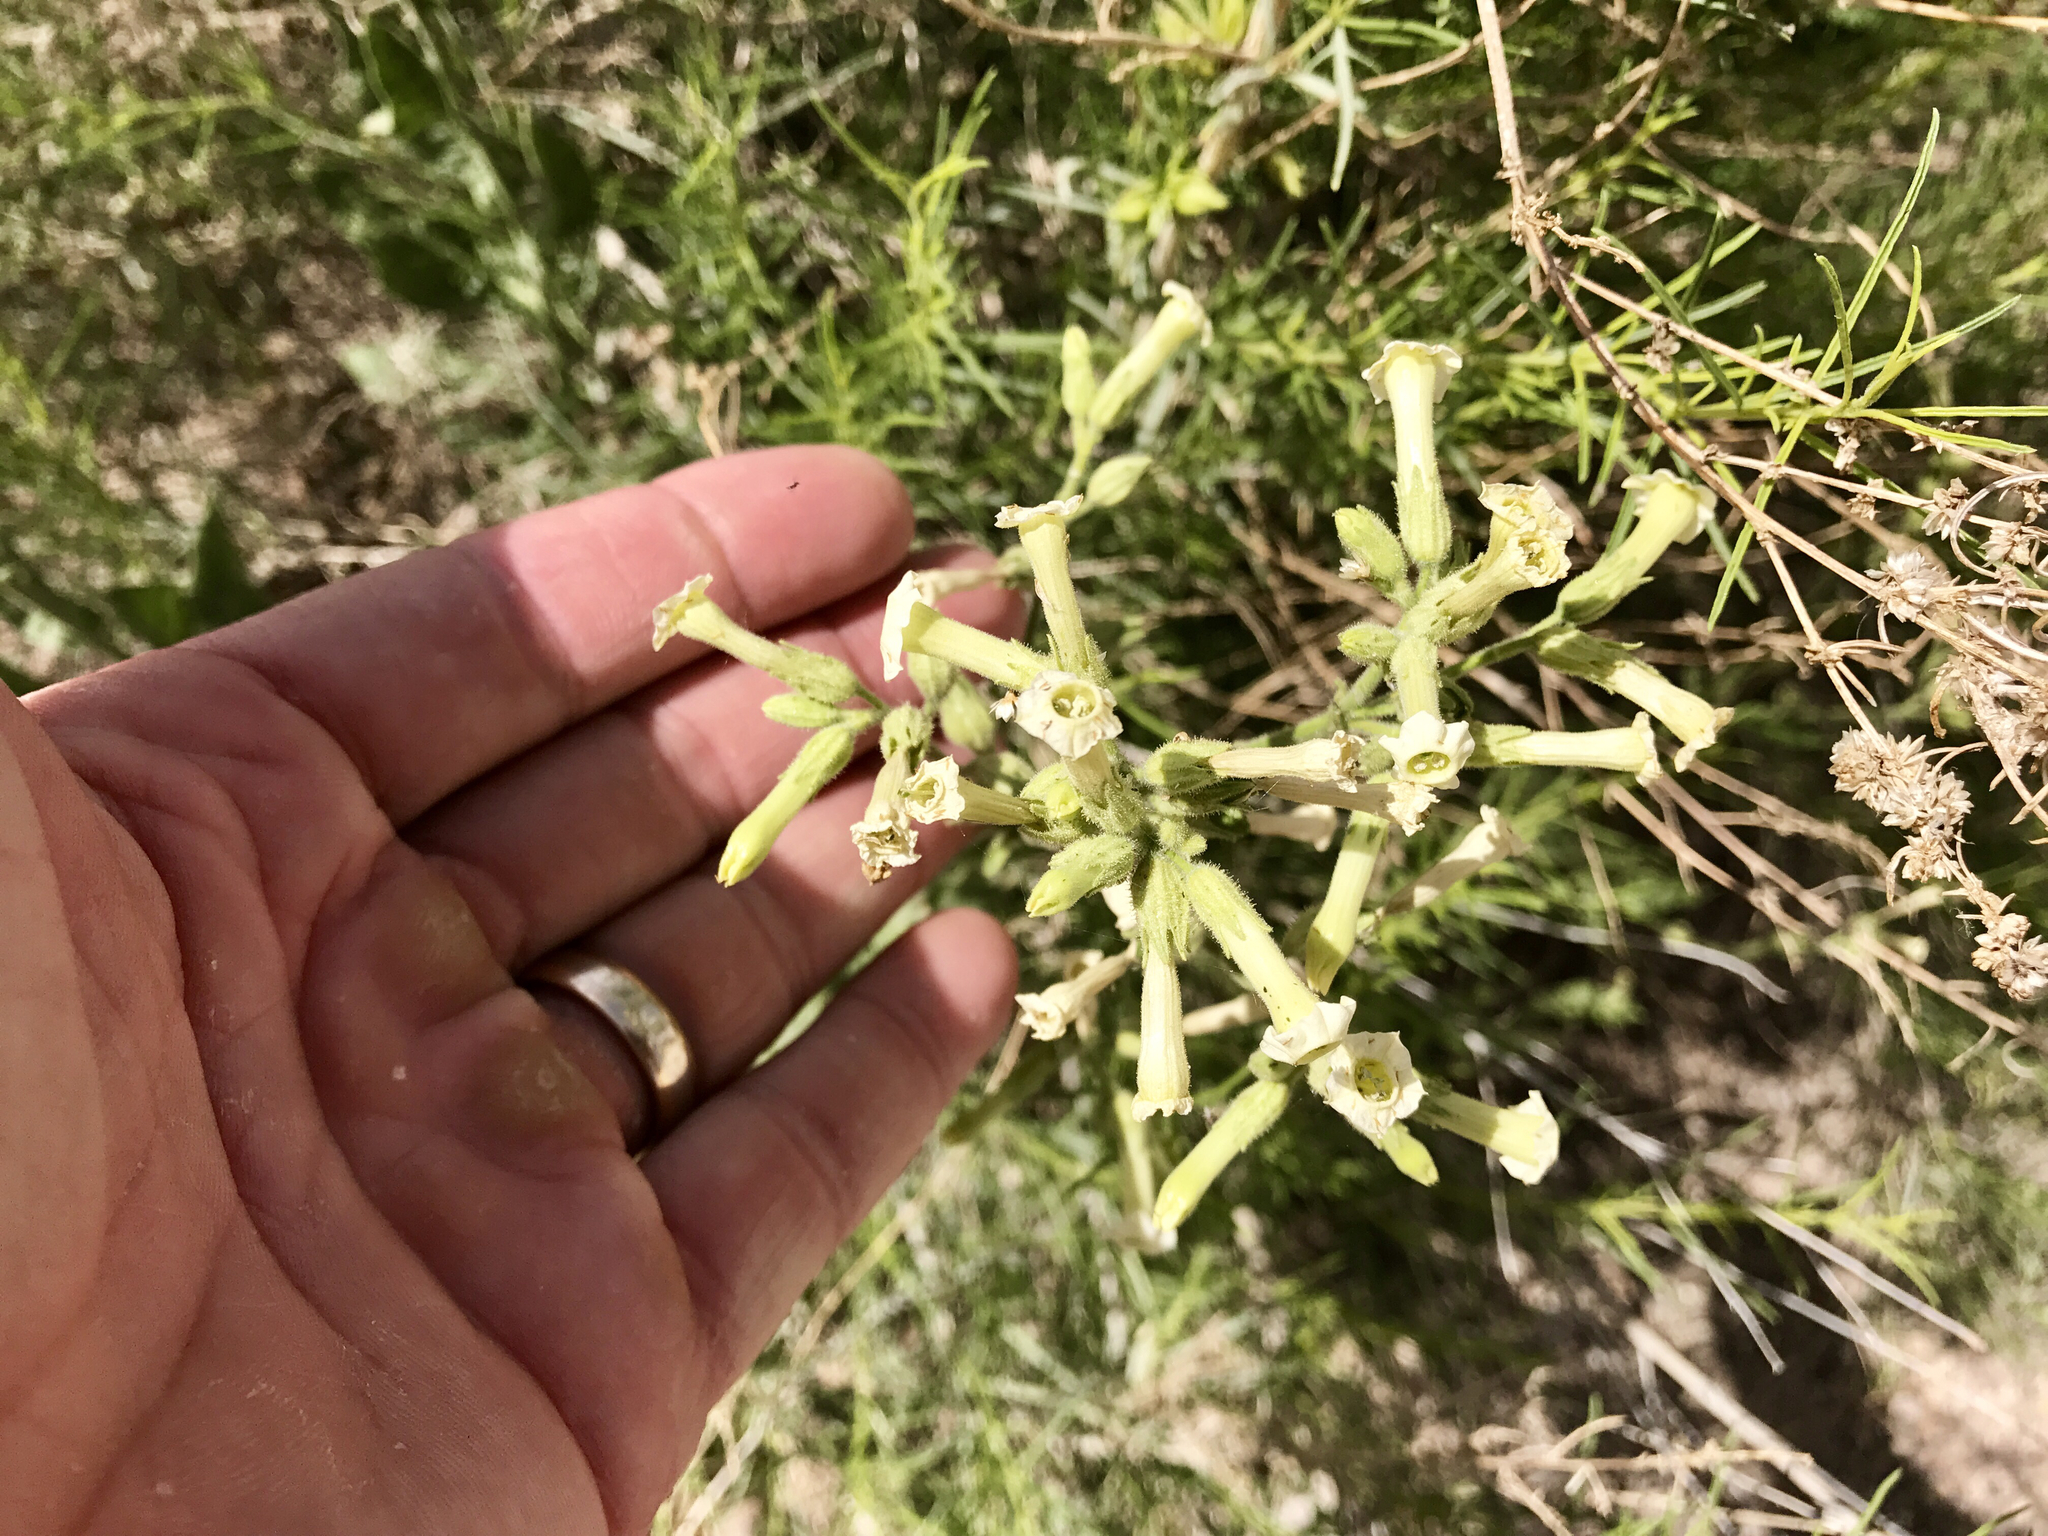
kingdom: Plantae
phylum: Tracheophyta
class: Magnoliopsida
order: Solanales
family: Solanaceae
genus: Nicotiana
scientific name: Nicotiana obtusifolia
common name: Desert tobacco
